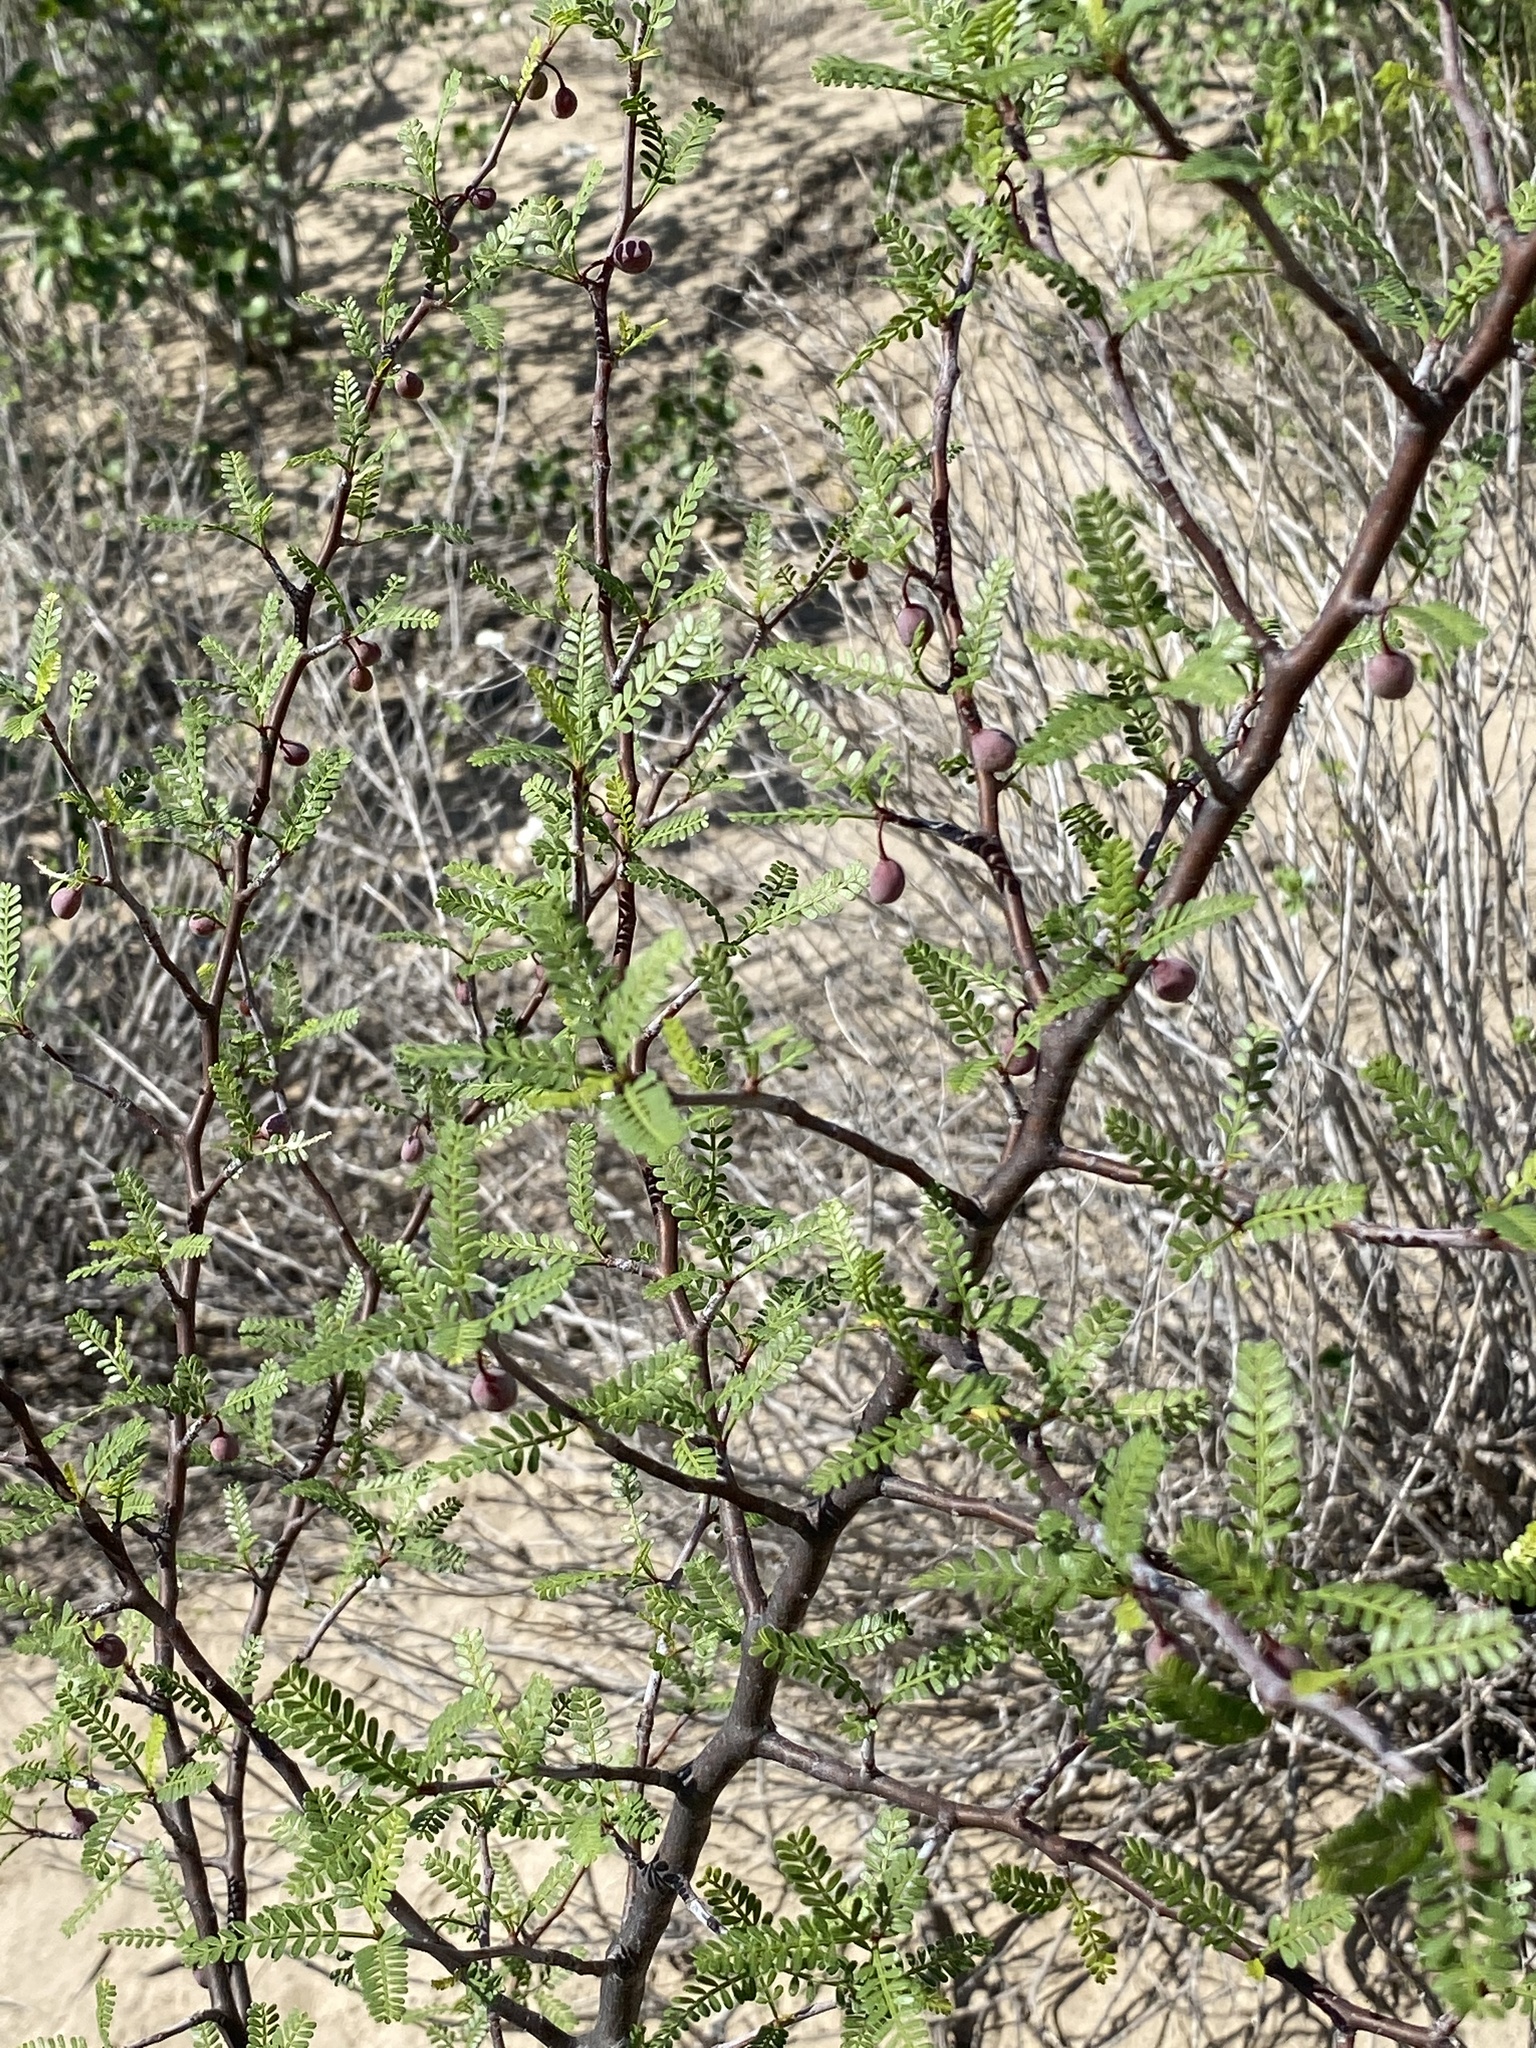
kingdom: Plantae
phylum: Tracheophyta
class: Magnoliopsida
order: Sapindales
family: Burseraceae
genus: Bursera
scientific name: Bursera microphylla
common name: Elephant tree
